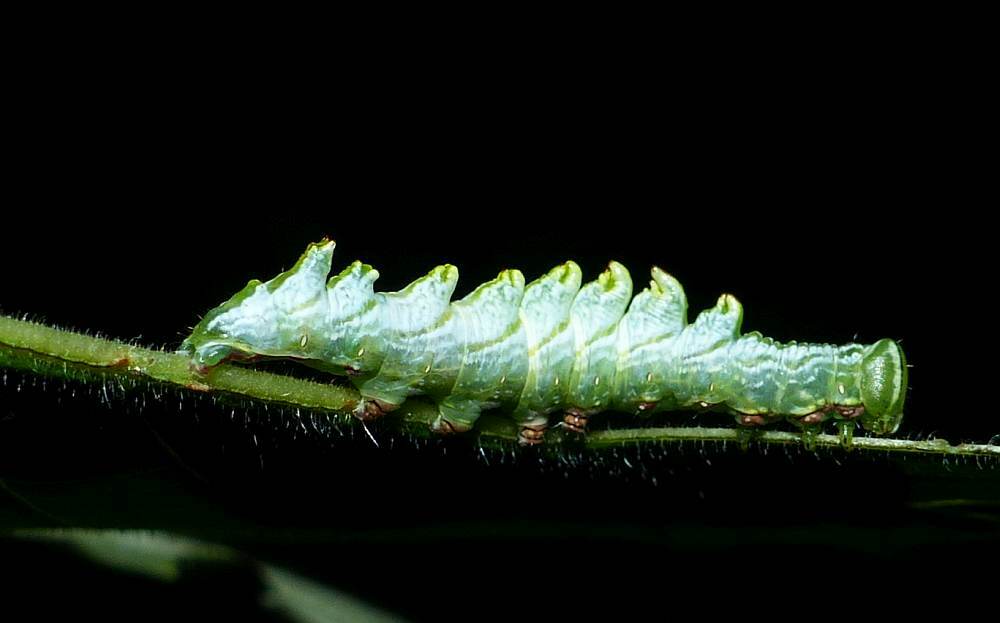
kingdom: Animalia
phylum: Arthropoda
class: Insecta
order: Lepidoptera
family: Notodontidae
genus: Nerice
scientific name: Nerice bidentata
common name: Double-toothed prominent
